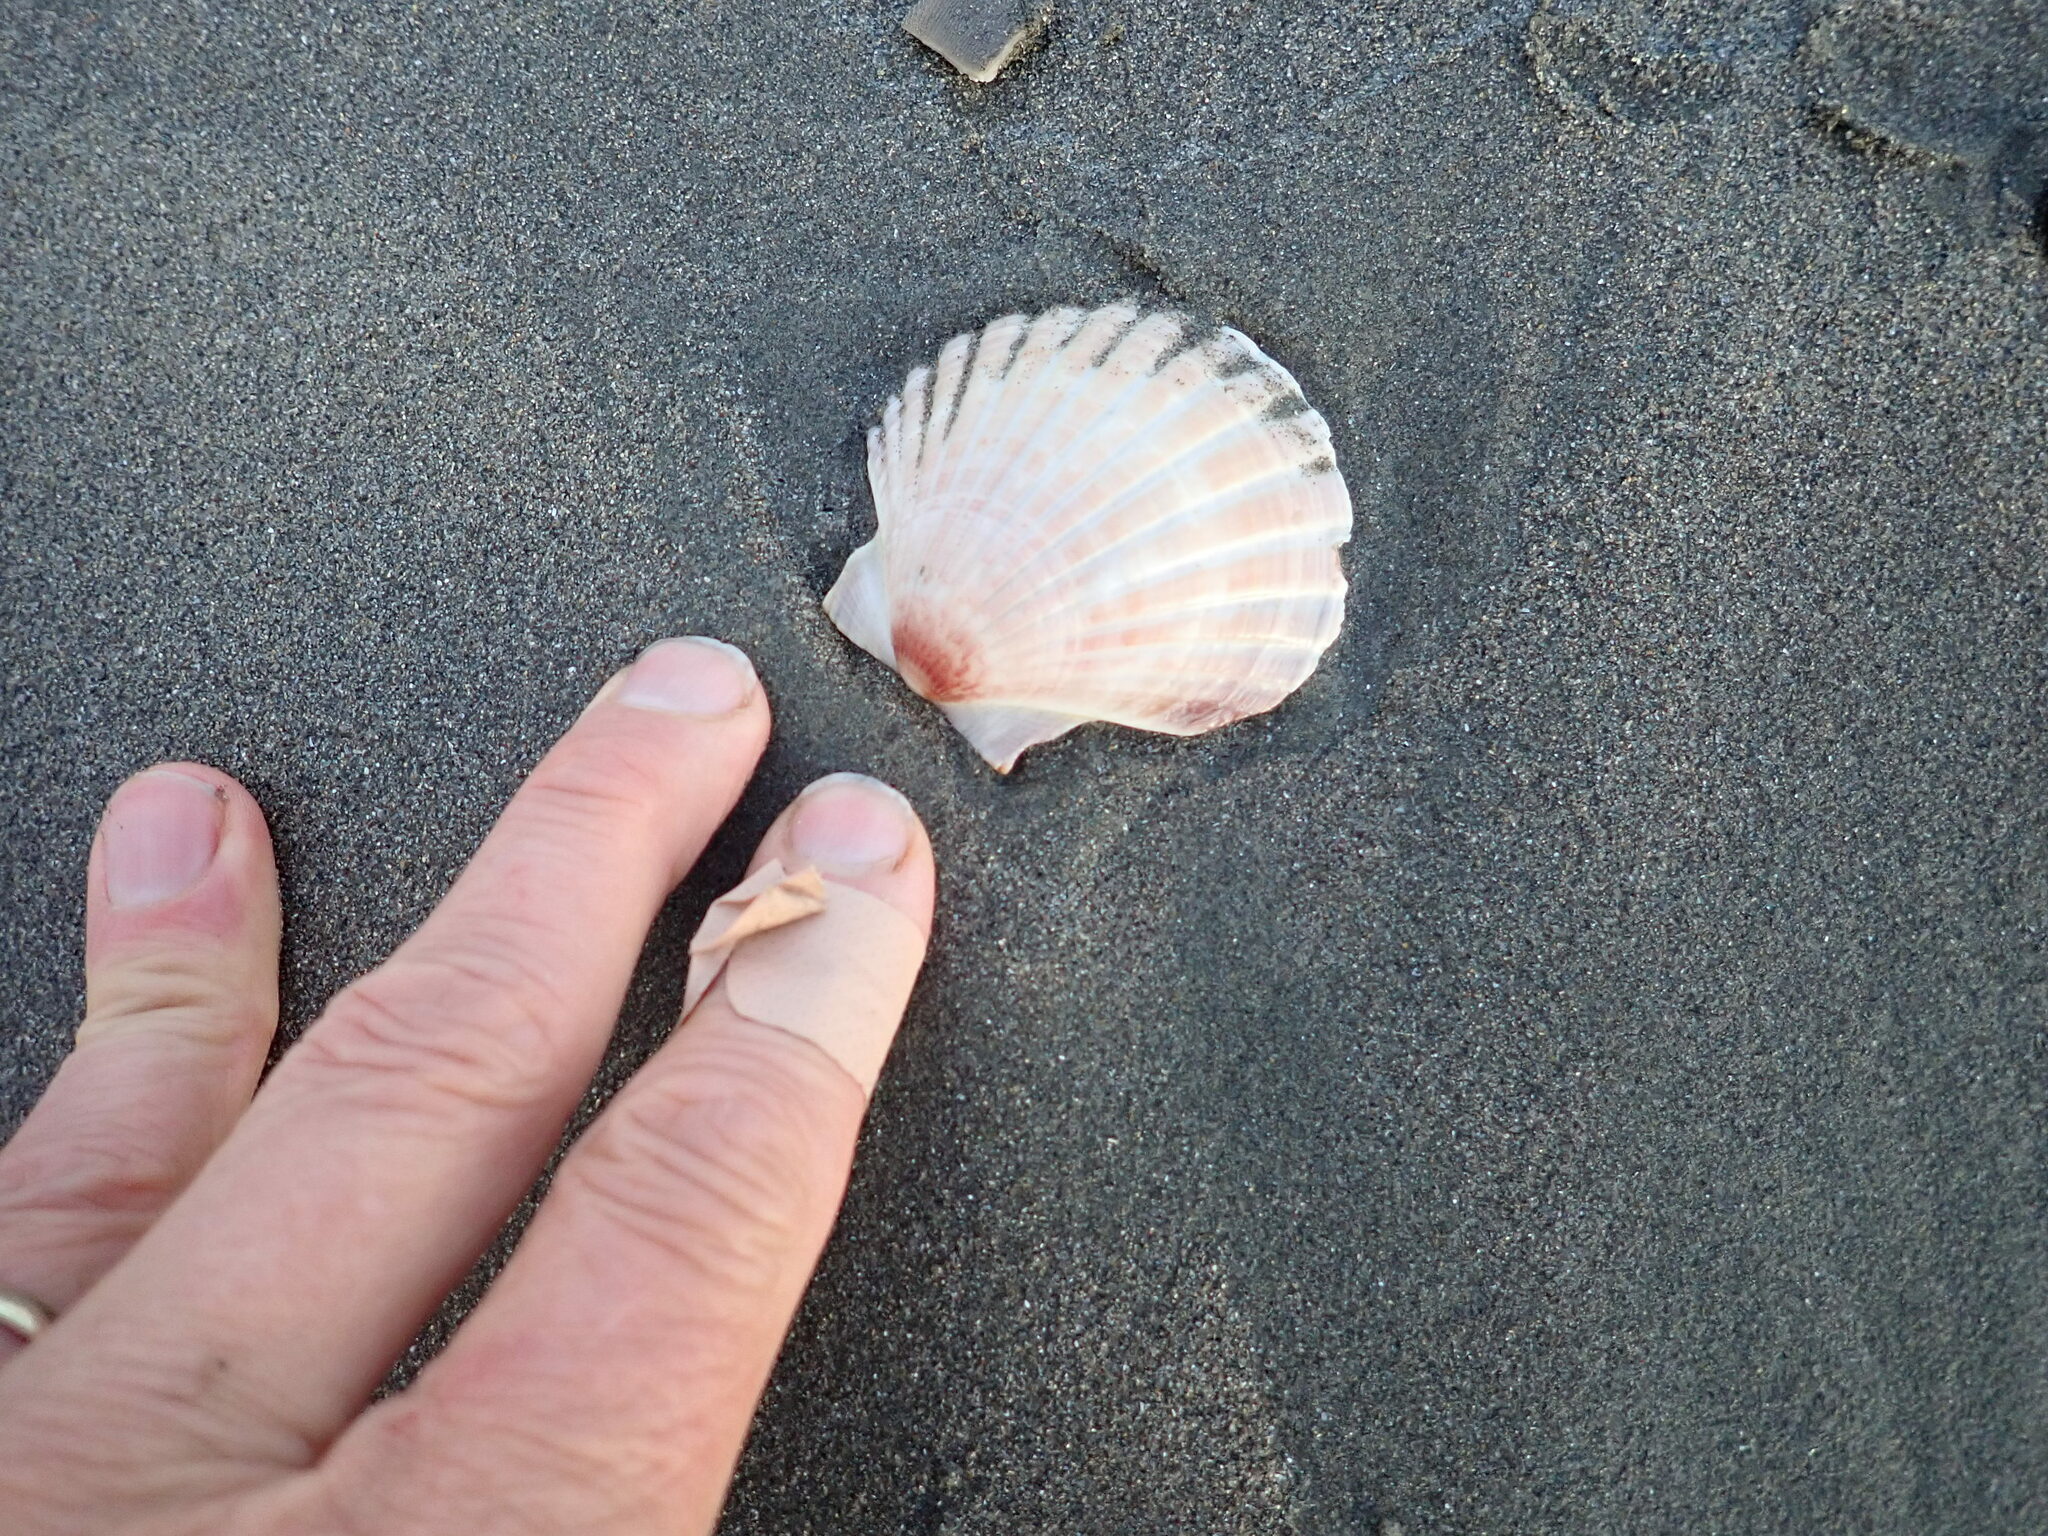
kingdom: Animalia
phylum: Mollusca
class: Bivalvia
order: Pectinida
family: Pectinidae
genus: Pecten
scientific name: Pecten novaezelandiae
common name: New zealand scallop
